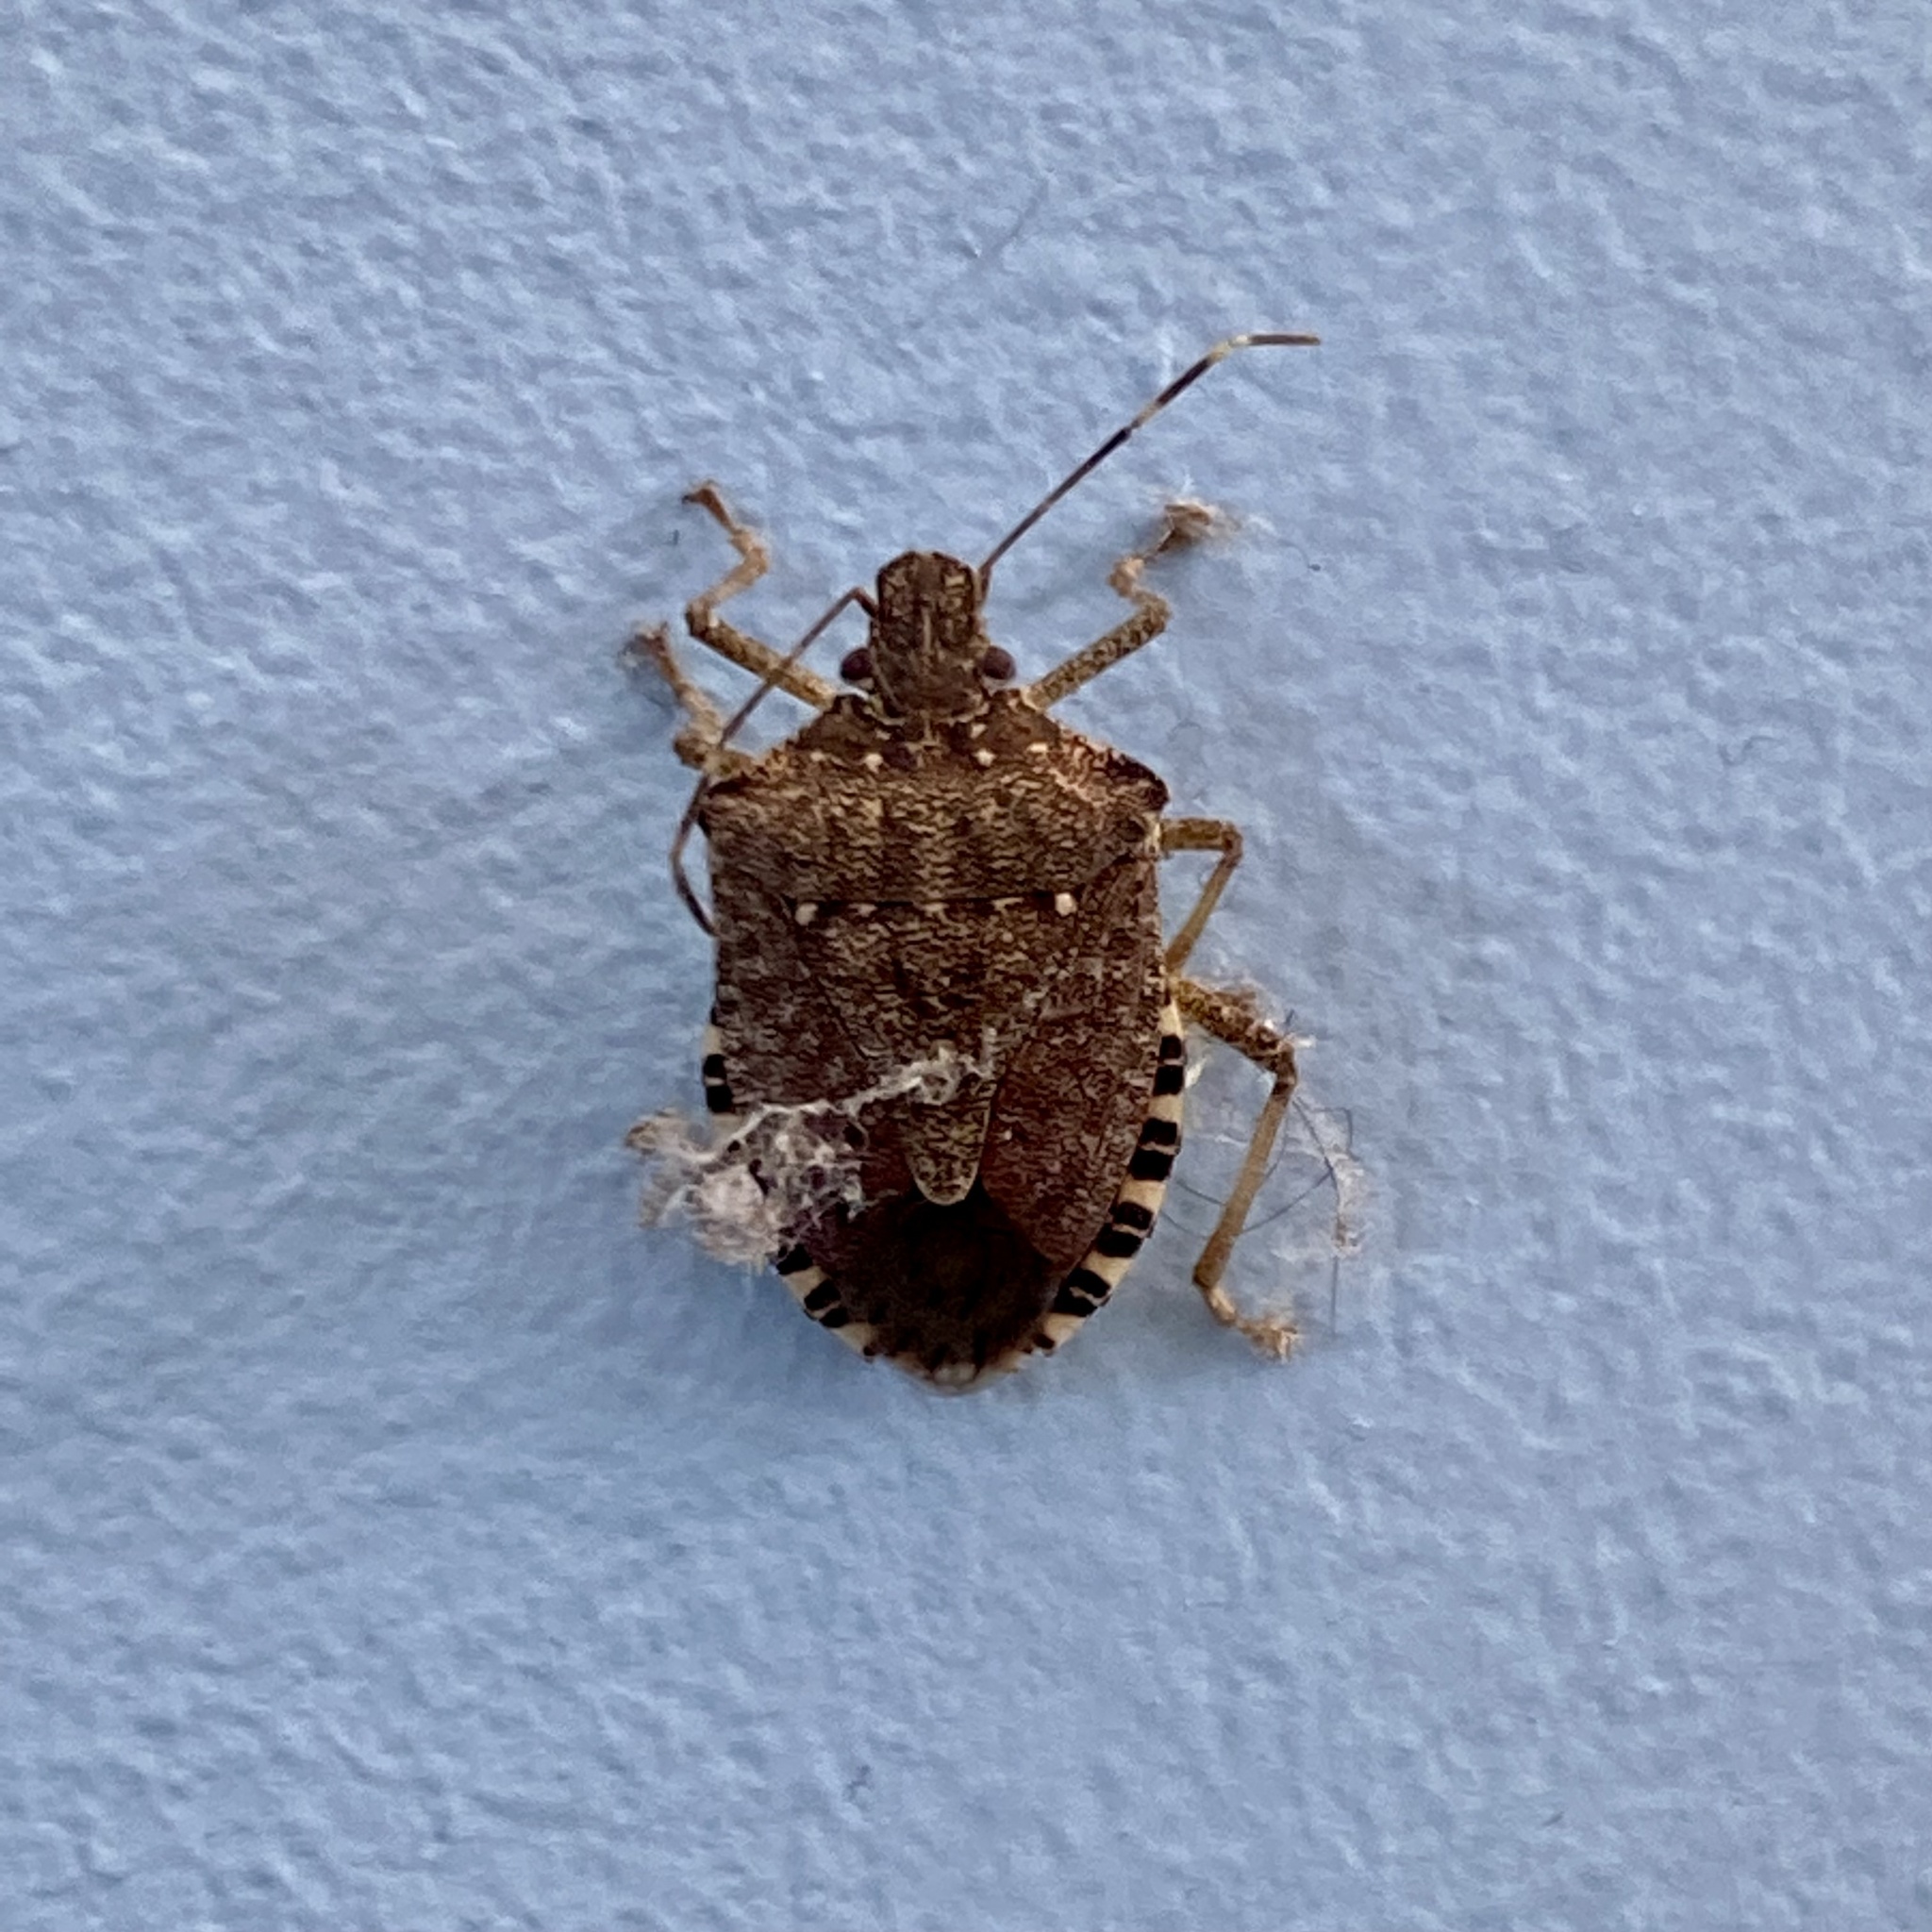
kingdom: Animalia
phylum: Arthropoda
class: Insecta
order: Hemiptera
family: Pentatomidae
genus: Halyomorpha
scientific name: Halyomorpha halys
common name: Brown marmorated stink bug
